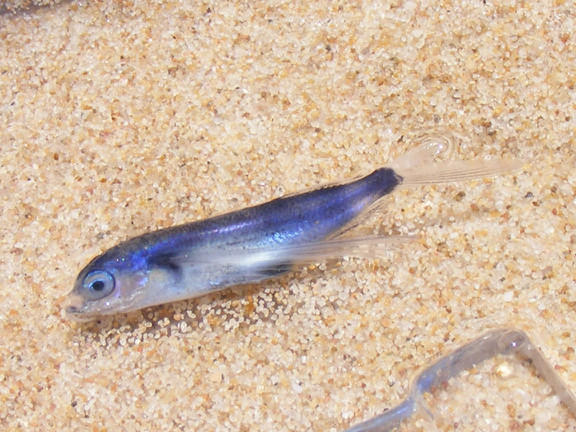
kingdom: Animalia
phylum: Chordata
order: Beloniformes
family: Exocoetidae
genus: Exocoetus
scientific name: Exocoetus monocirrhus
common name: Barbel flyingfish
